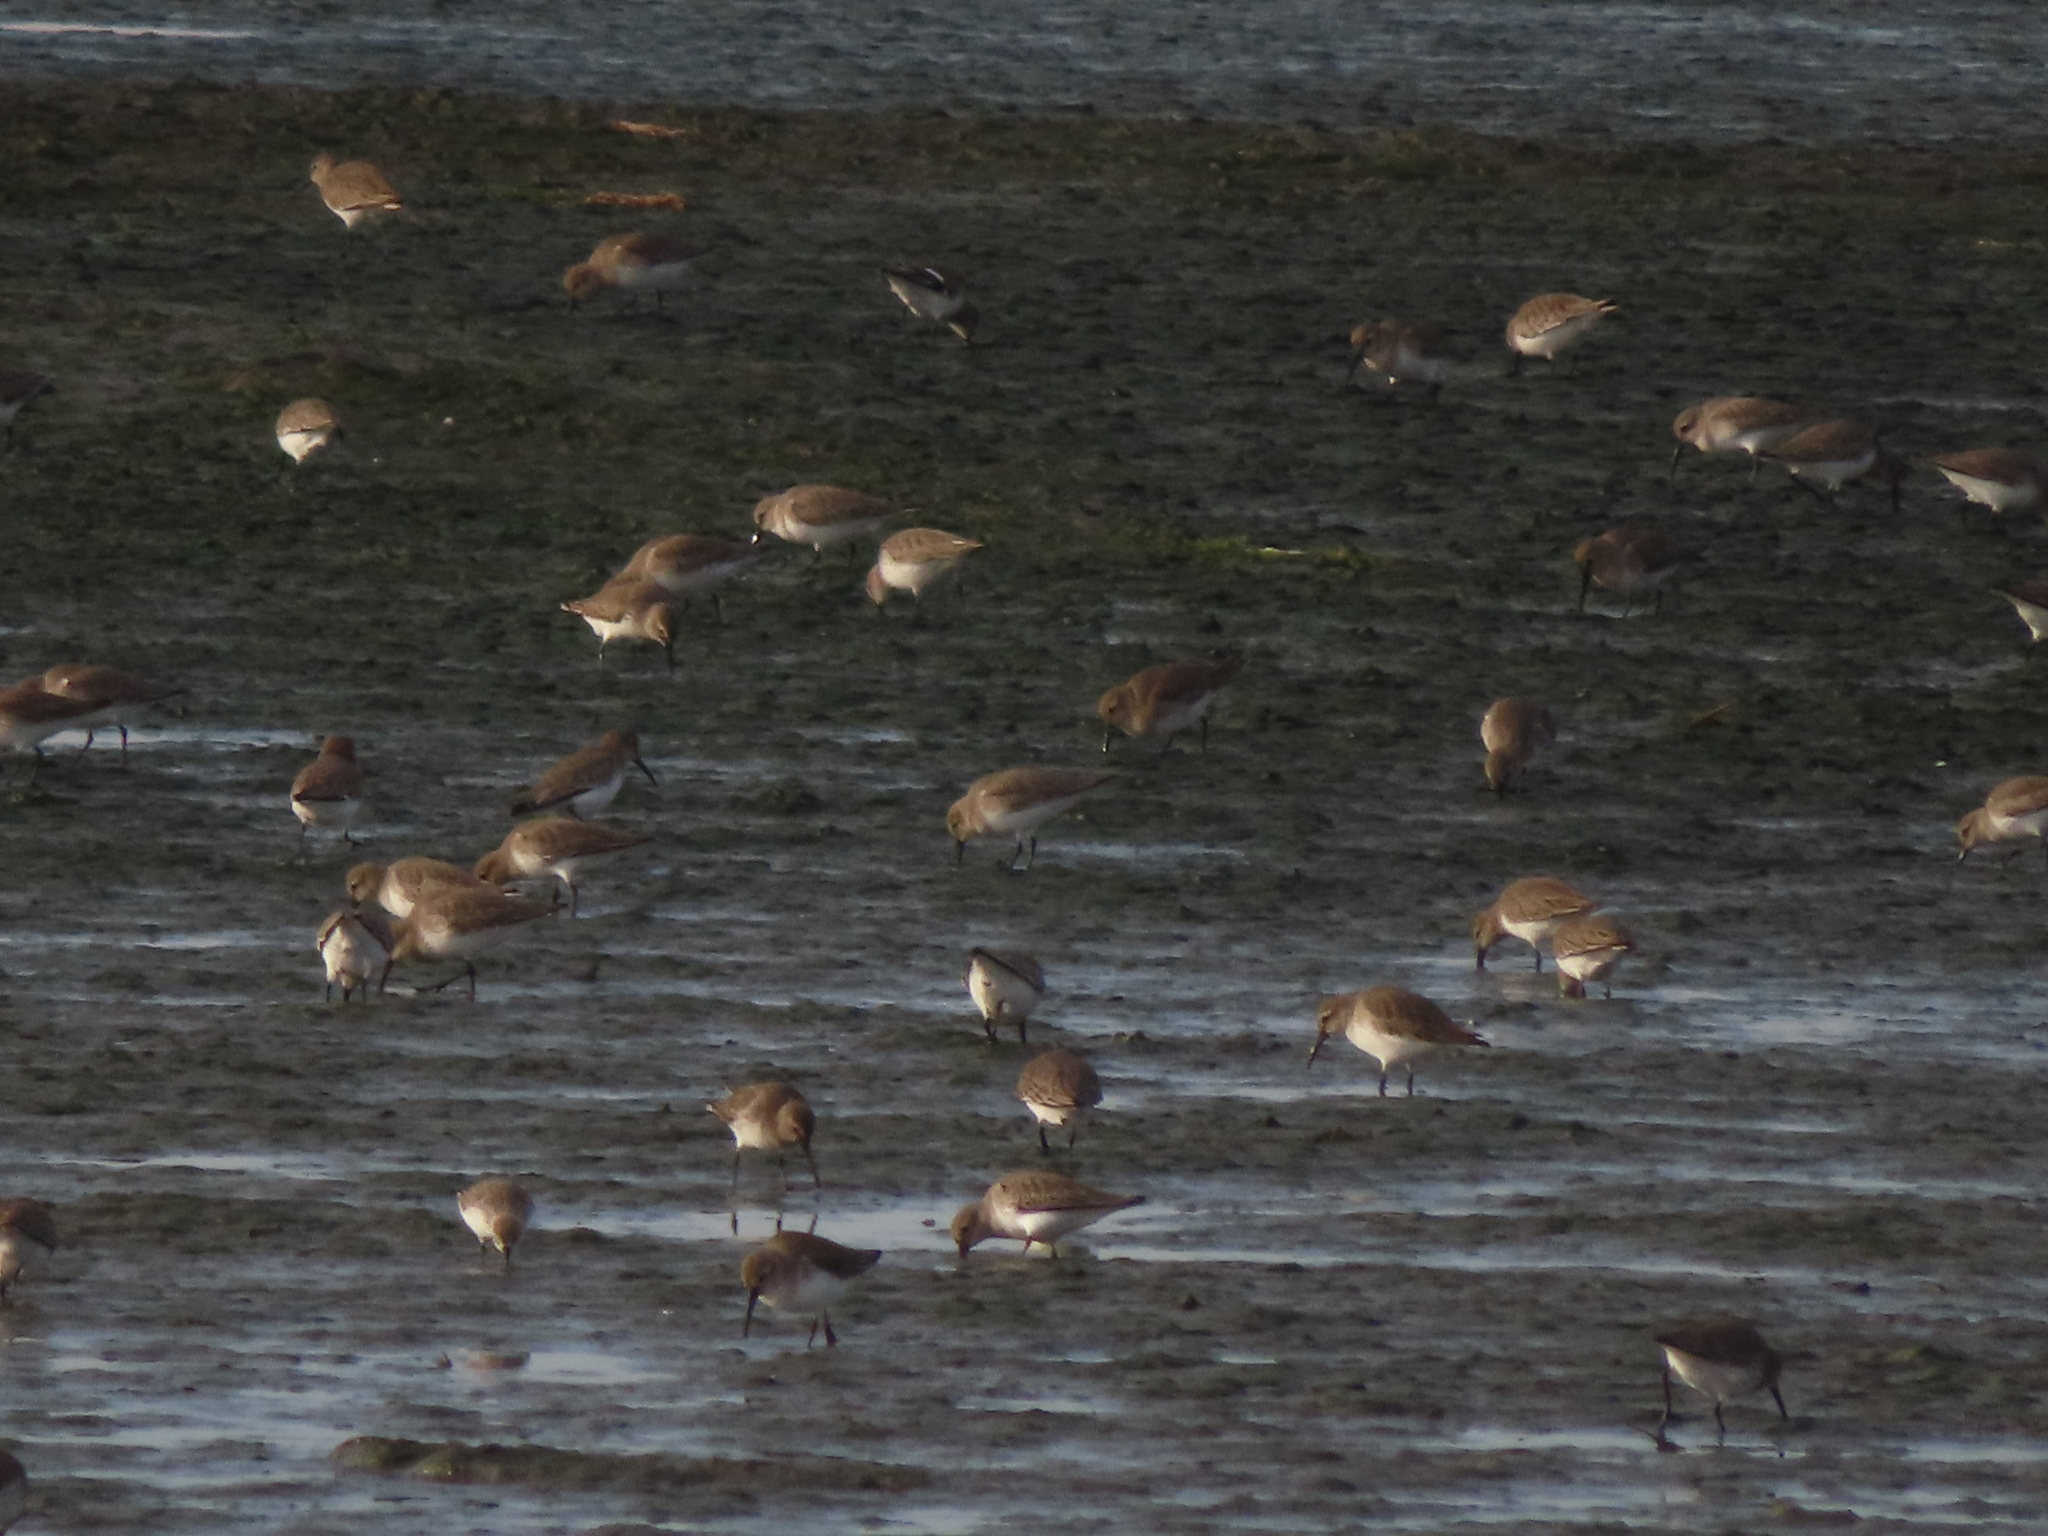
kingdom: Animalia
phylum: Chordata
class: Aves
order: Charadriiformes
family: Scolopacidae
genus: Calidris
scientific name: Calidris alpina
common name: Dunlin
